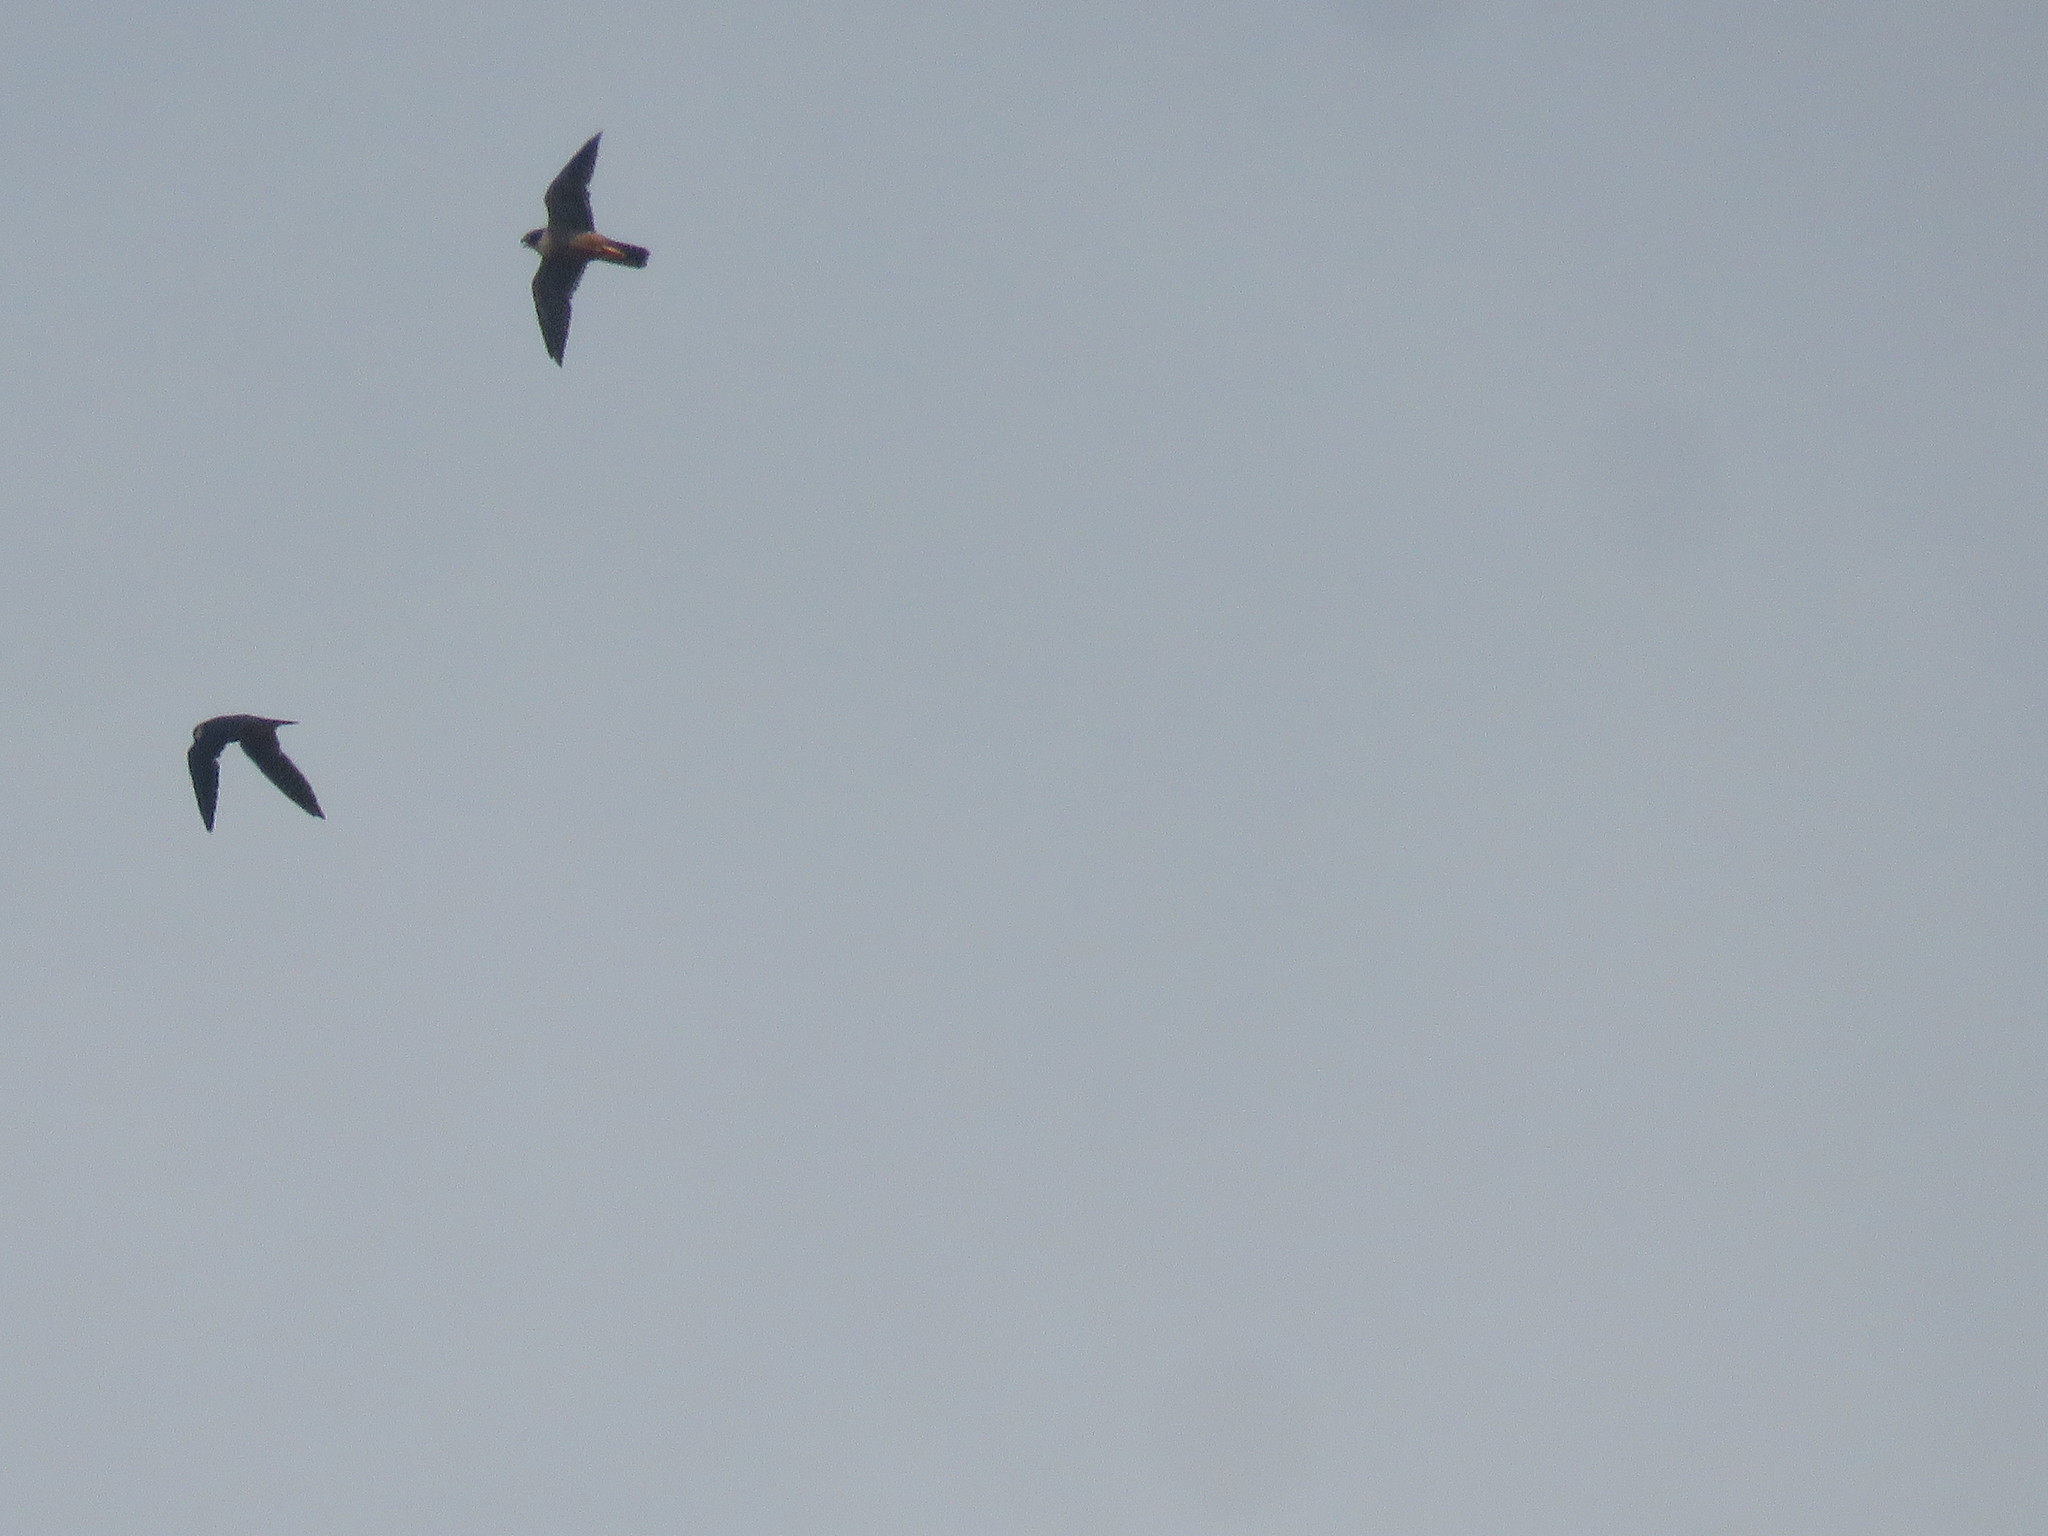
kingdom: Animalia
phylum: Chordata
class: Aves
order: Falconiformes
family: Falconidae
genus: Falco
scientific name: Falco rufigularis
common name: Bat falcon
